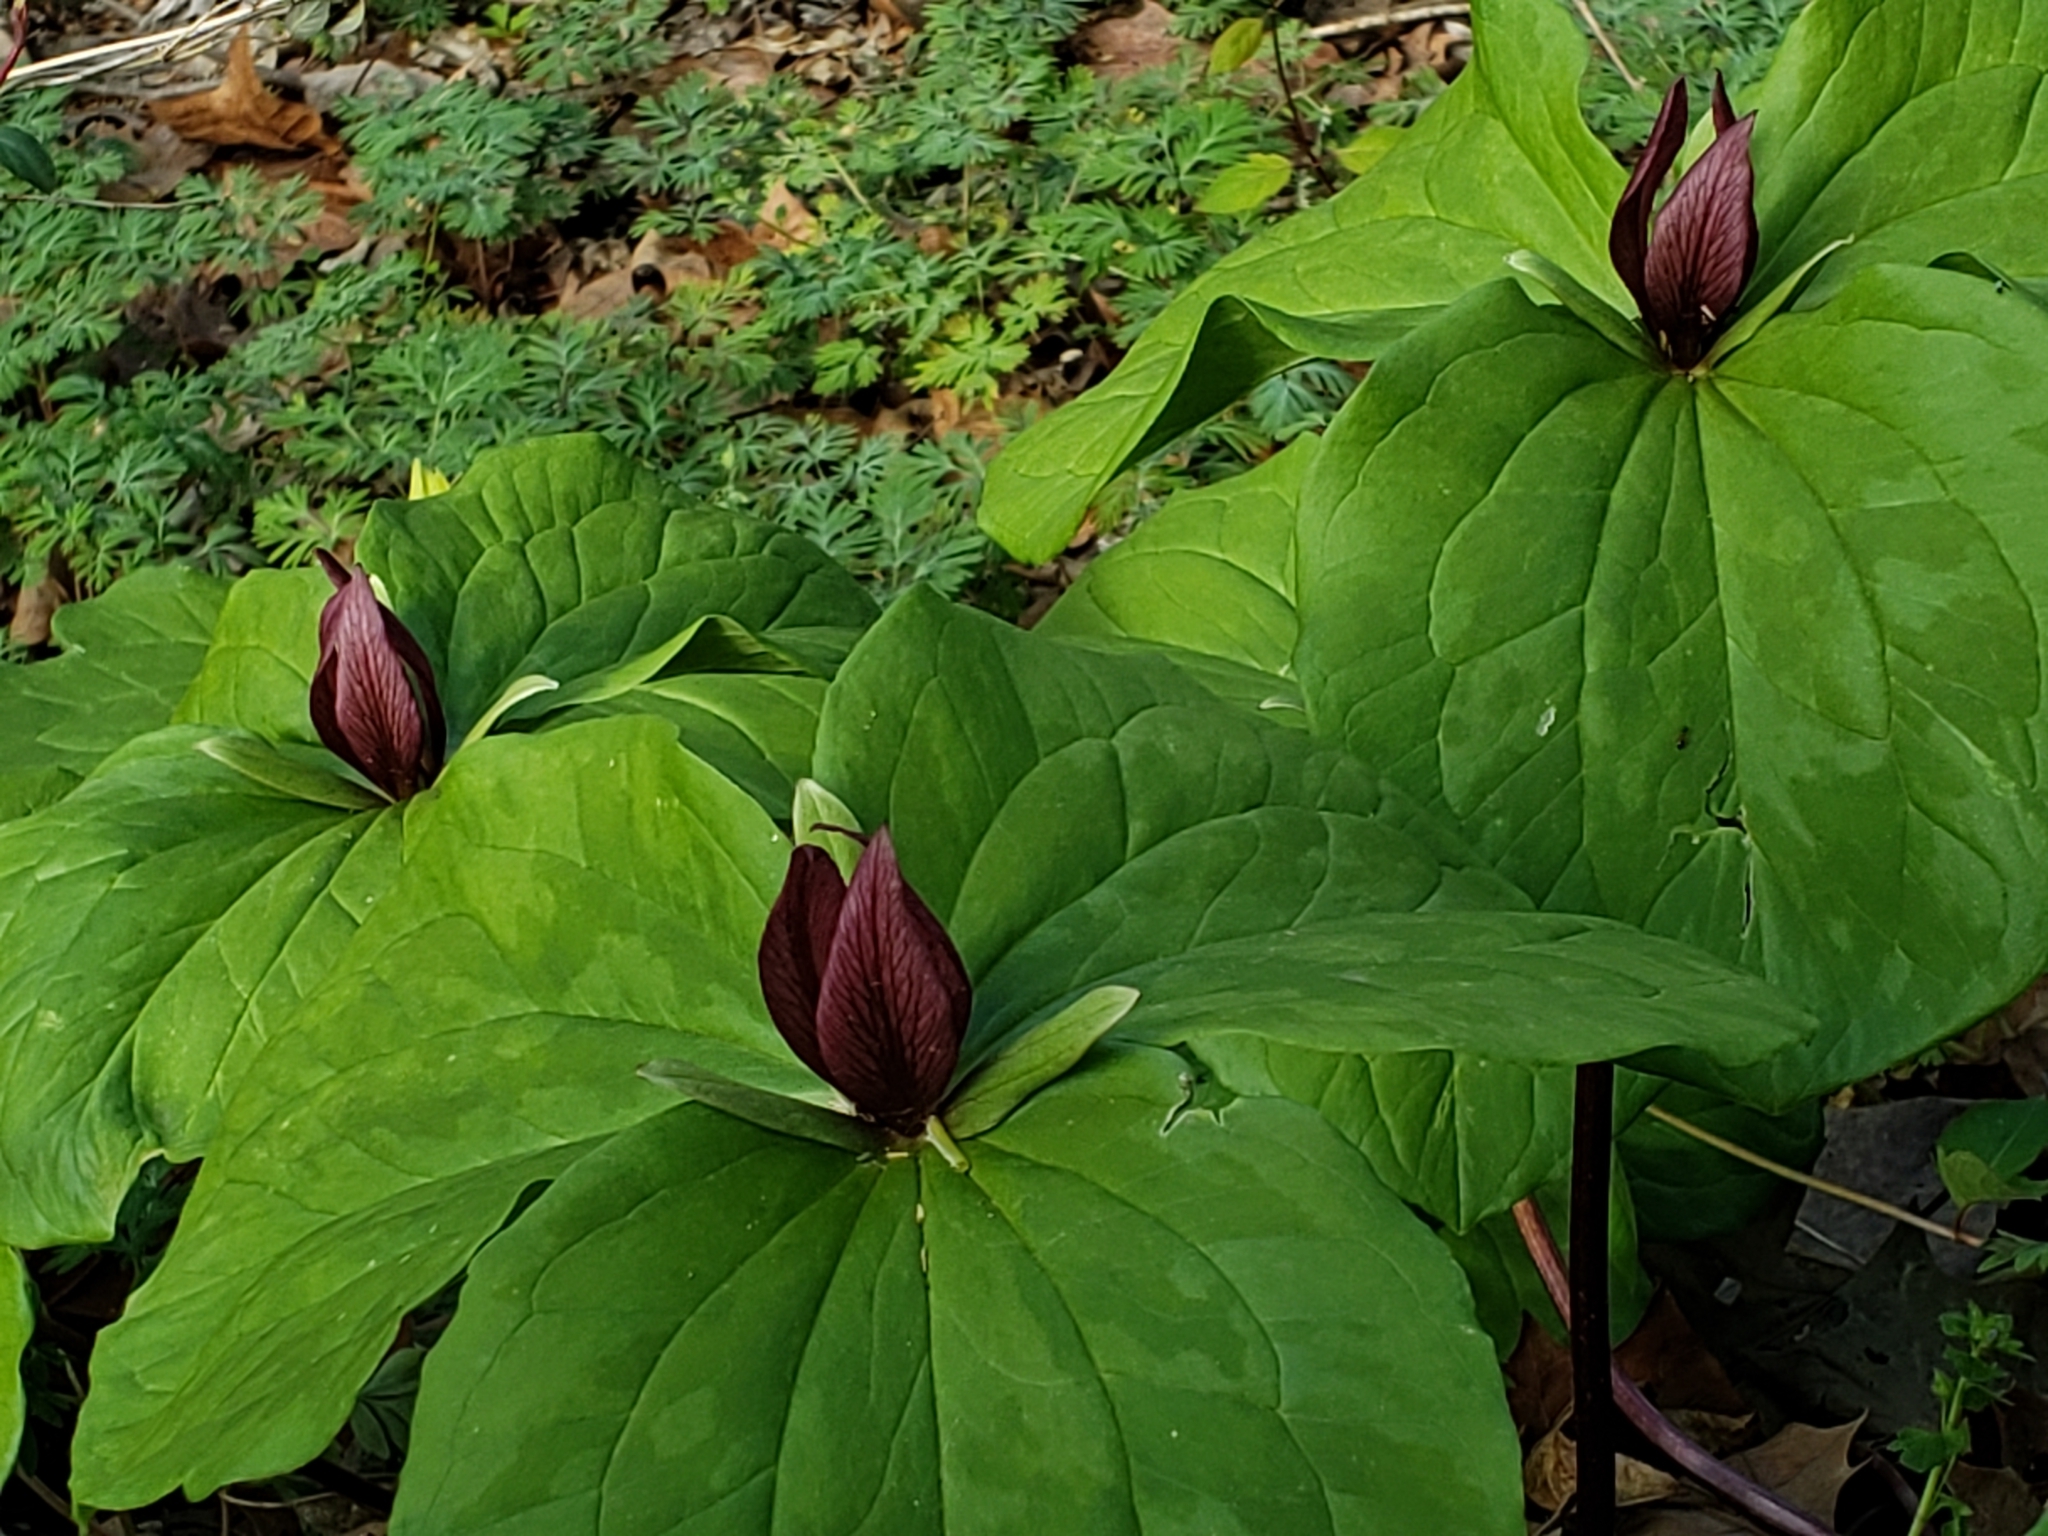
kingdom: Plantae
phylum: Tracheophyta
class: Liliopsida
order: Liliales
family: Melanthiaceae
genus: Trillium
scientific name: Trillium sessile
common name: Sessile trillium
